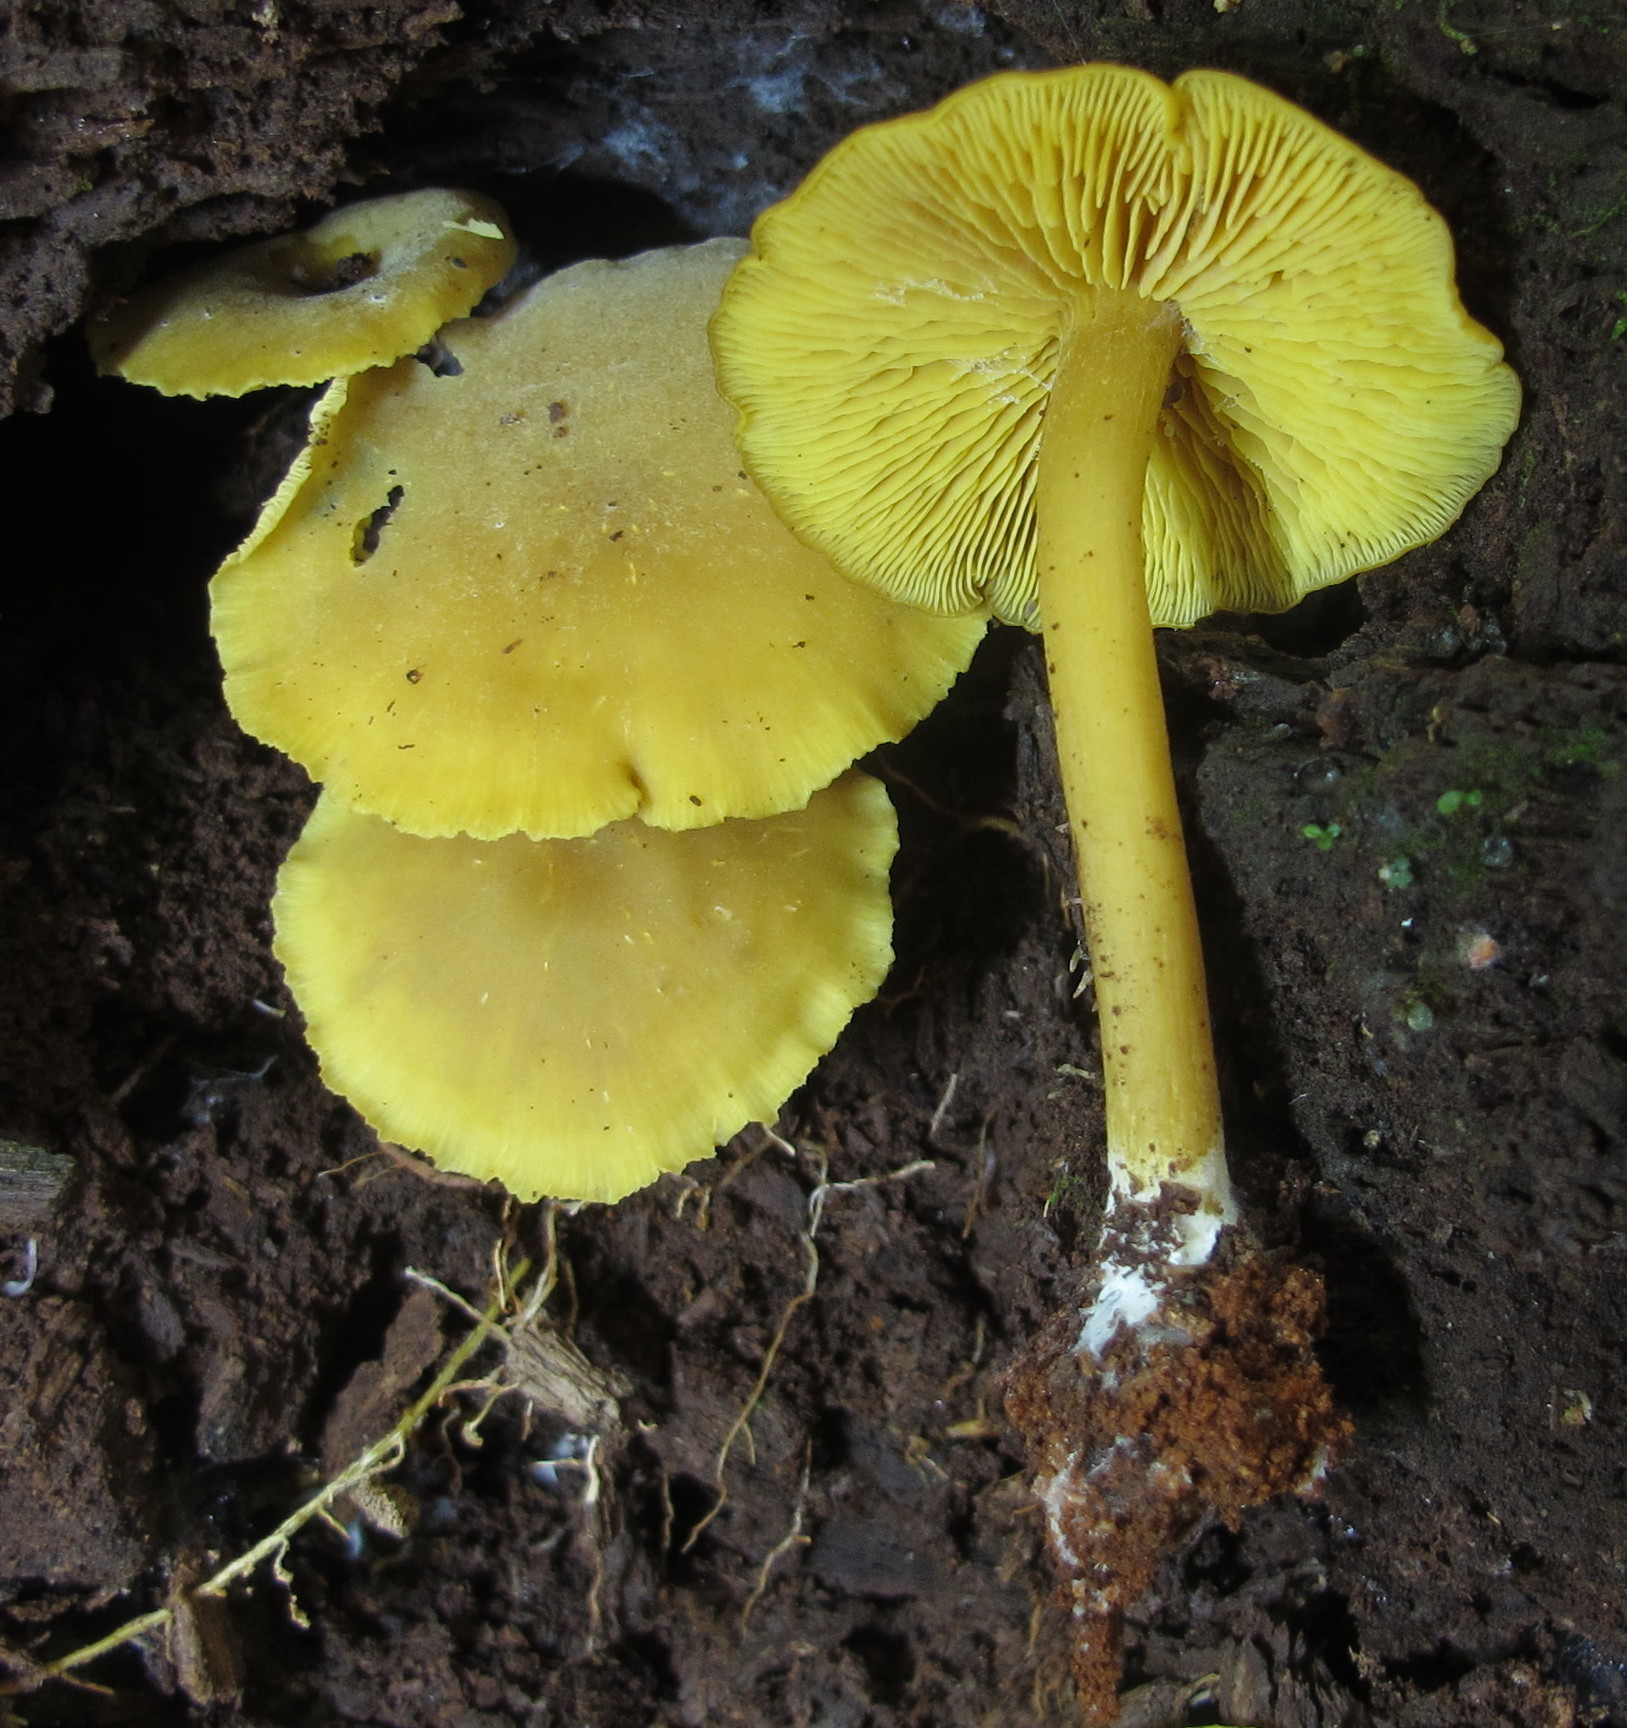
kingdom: Fungi
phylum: Basidiomycota
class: Agaricomycetes
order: Agaricales
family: Callistosporiaceae
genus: Callistosporium
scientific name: Callistosporium luteo-olivaceum
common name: Olive lute
